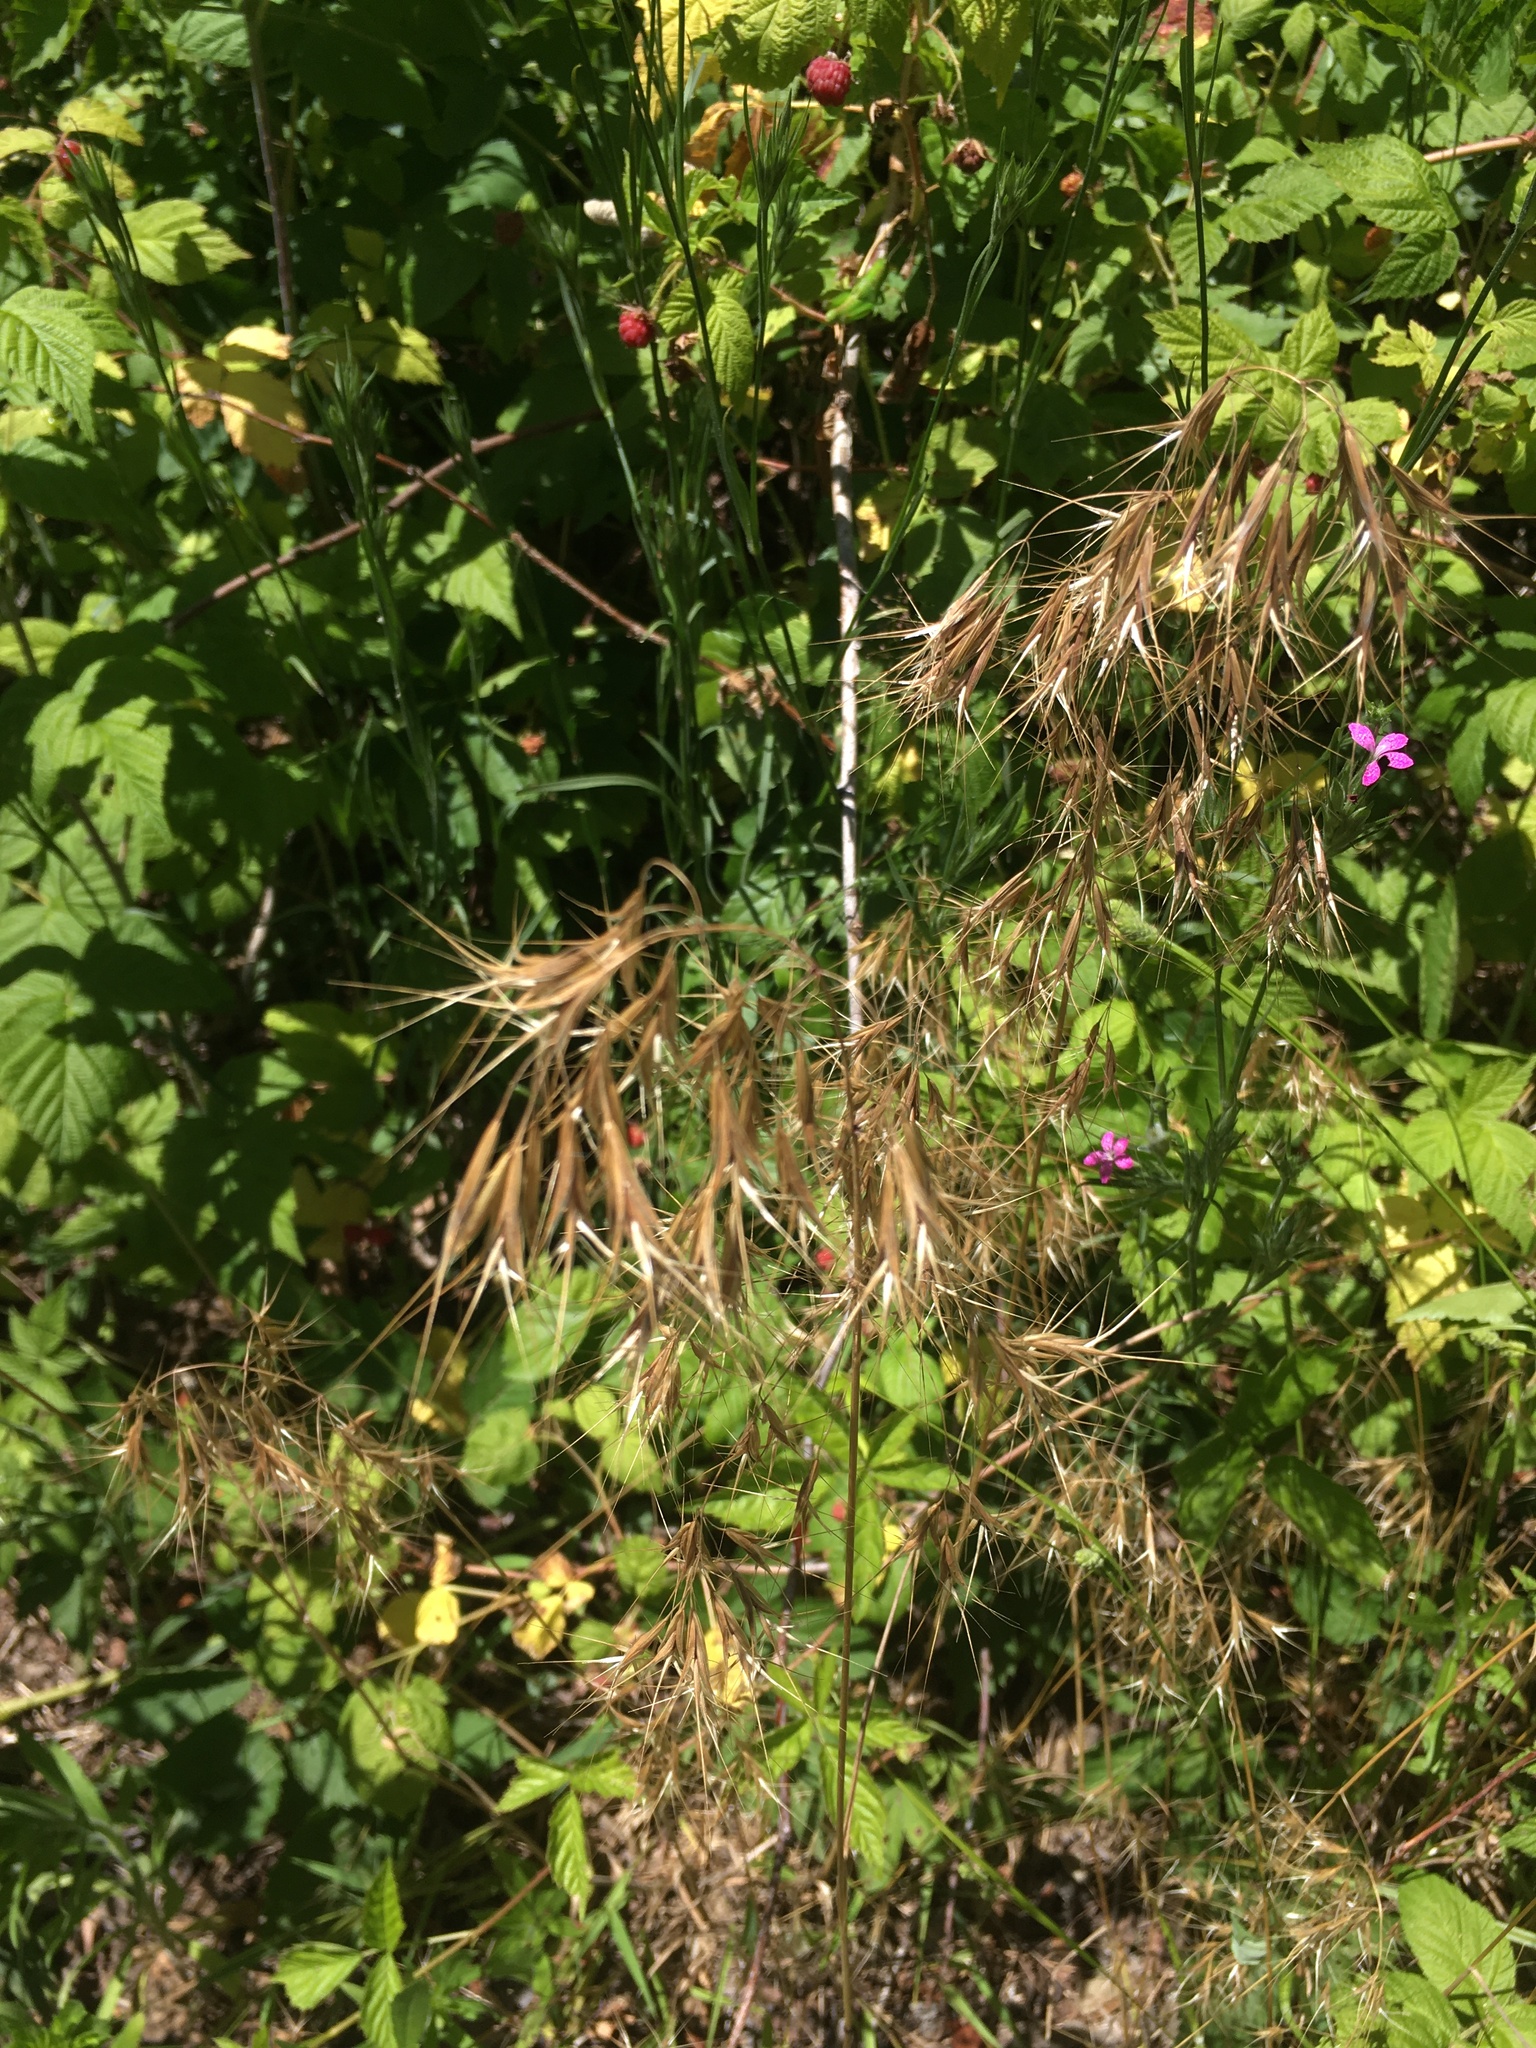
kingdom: Plantae
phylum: Tracheophyta
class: Liliopsida
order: Poales
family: Poaceae
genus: Bromus
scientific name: Bromus tectorum
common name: Cheatgrass
